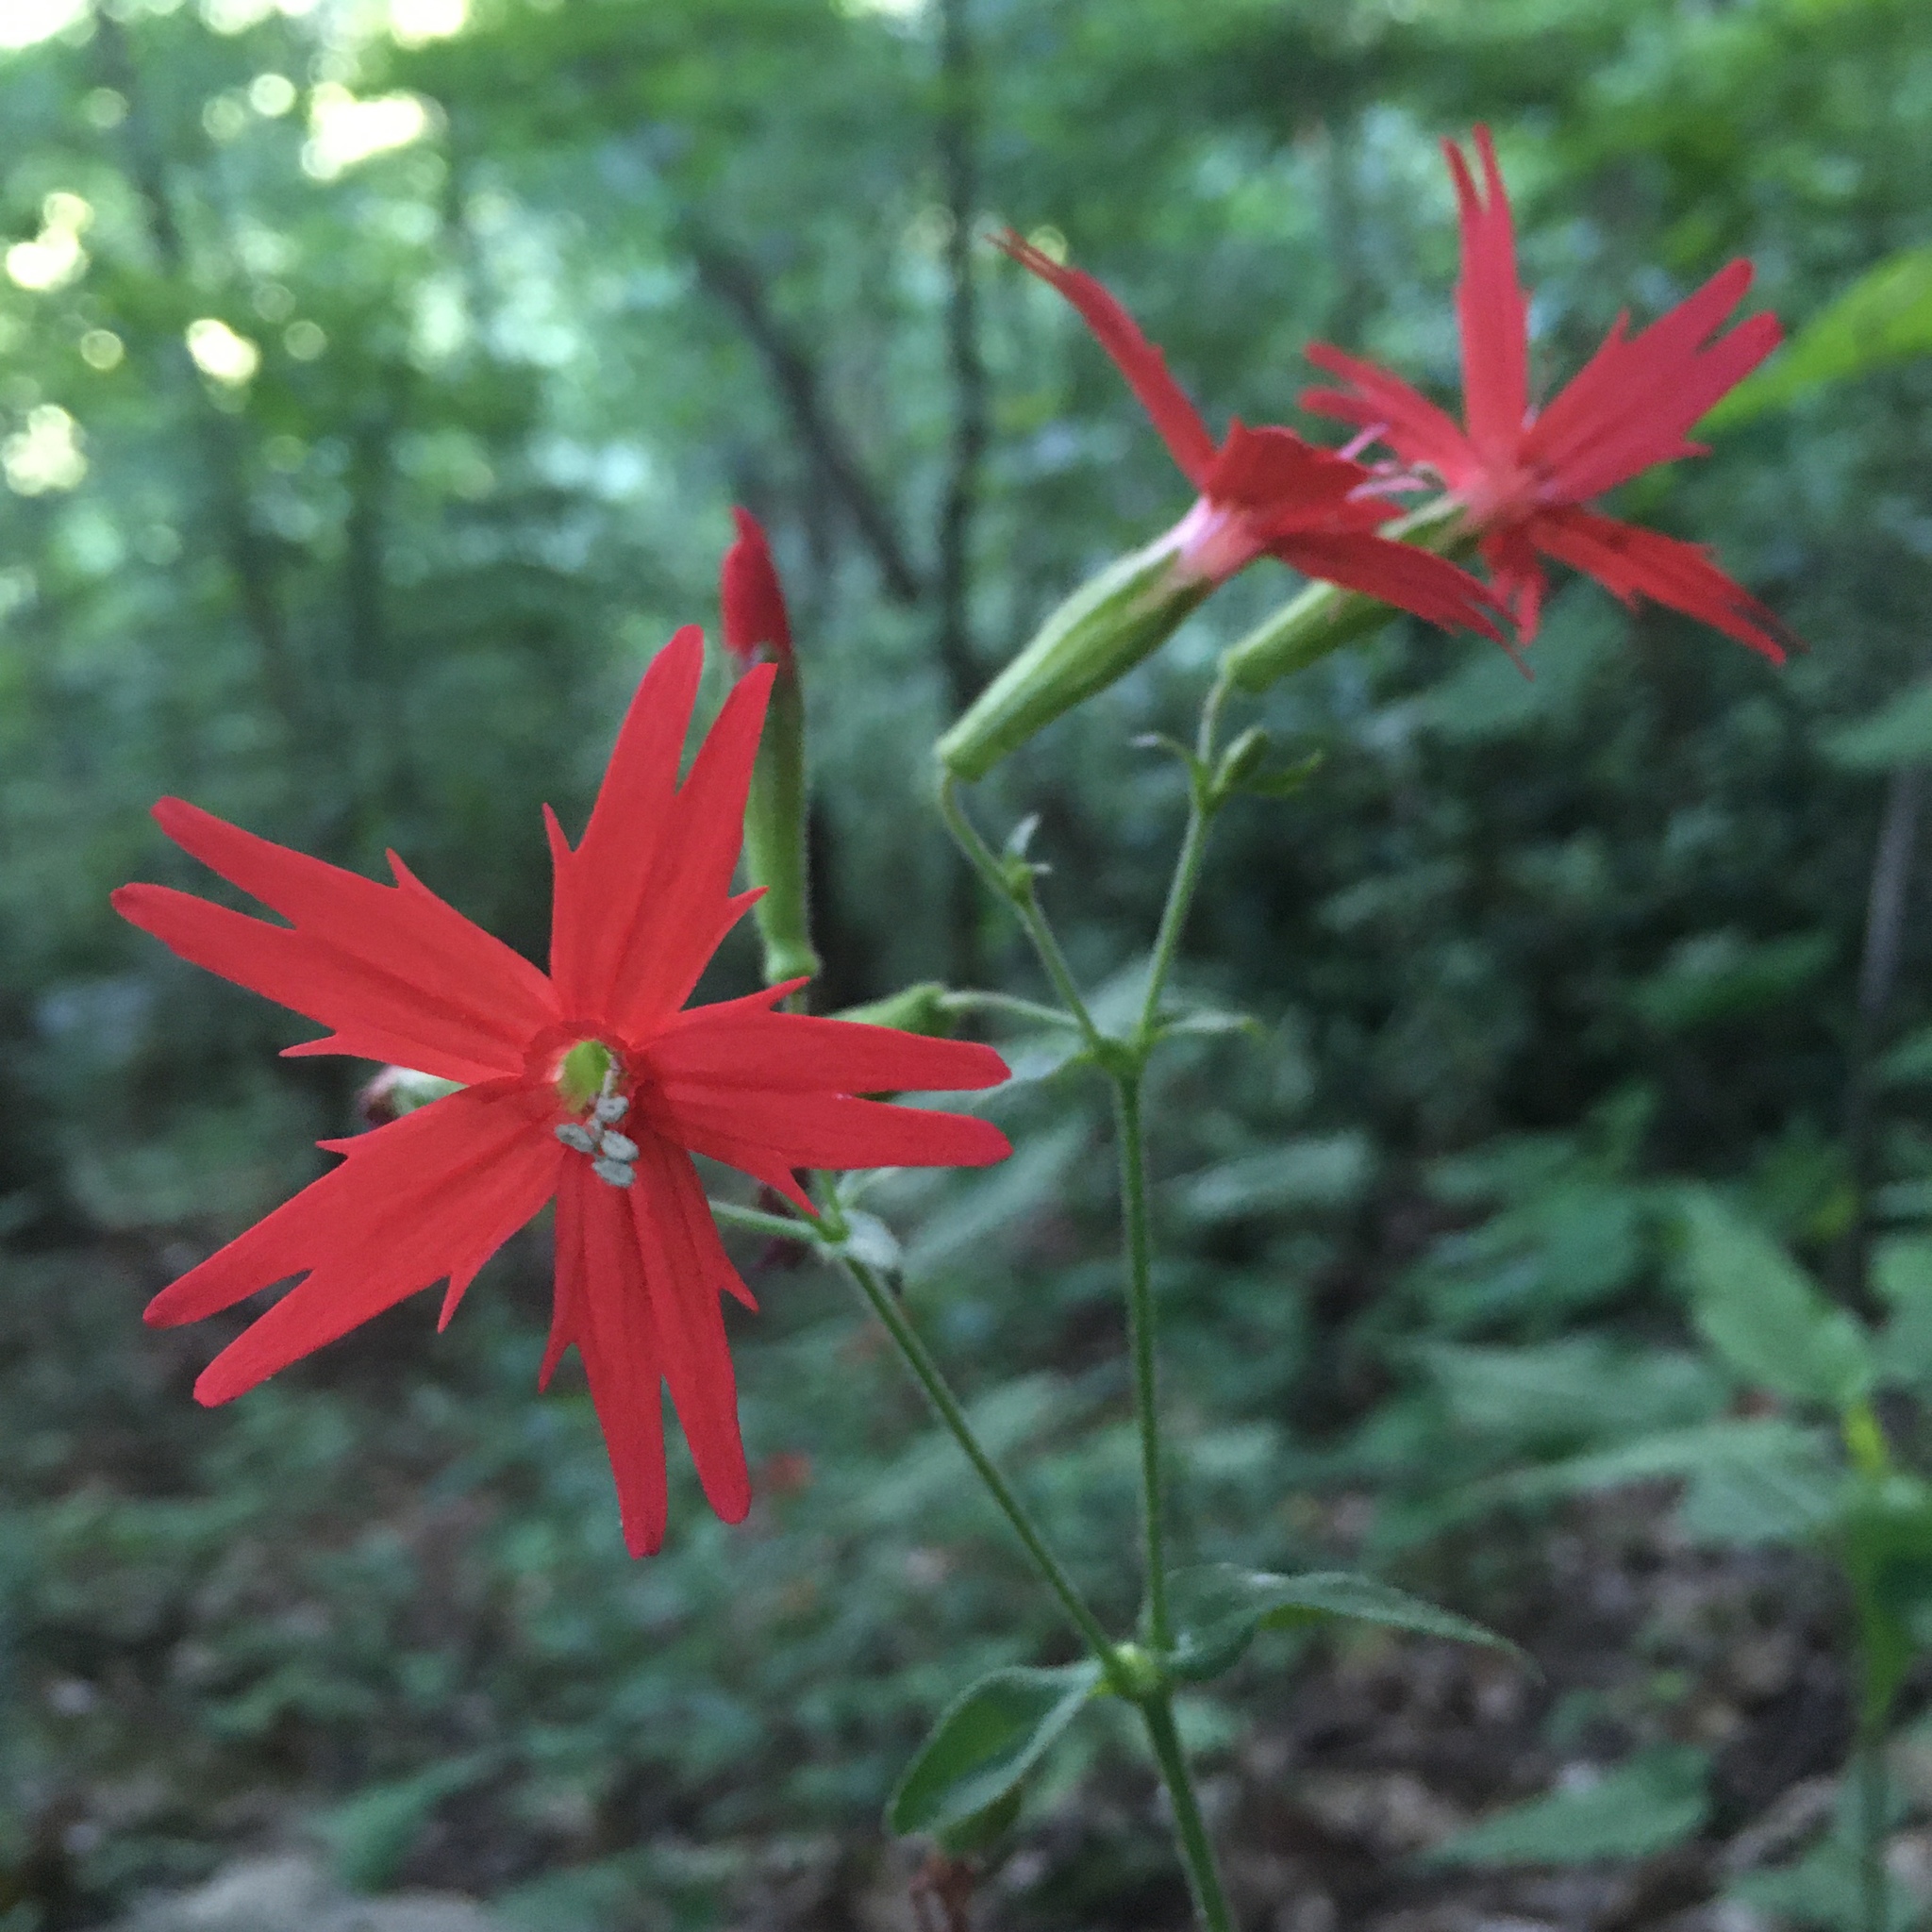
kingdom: Plantae
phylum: Tracheophyta
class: Magnoliopsida
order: Caryophyllales
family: Caryophyllaceae
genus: Silene
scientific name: Silene virginica
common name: Fire-pink
